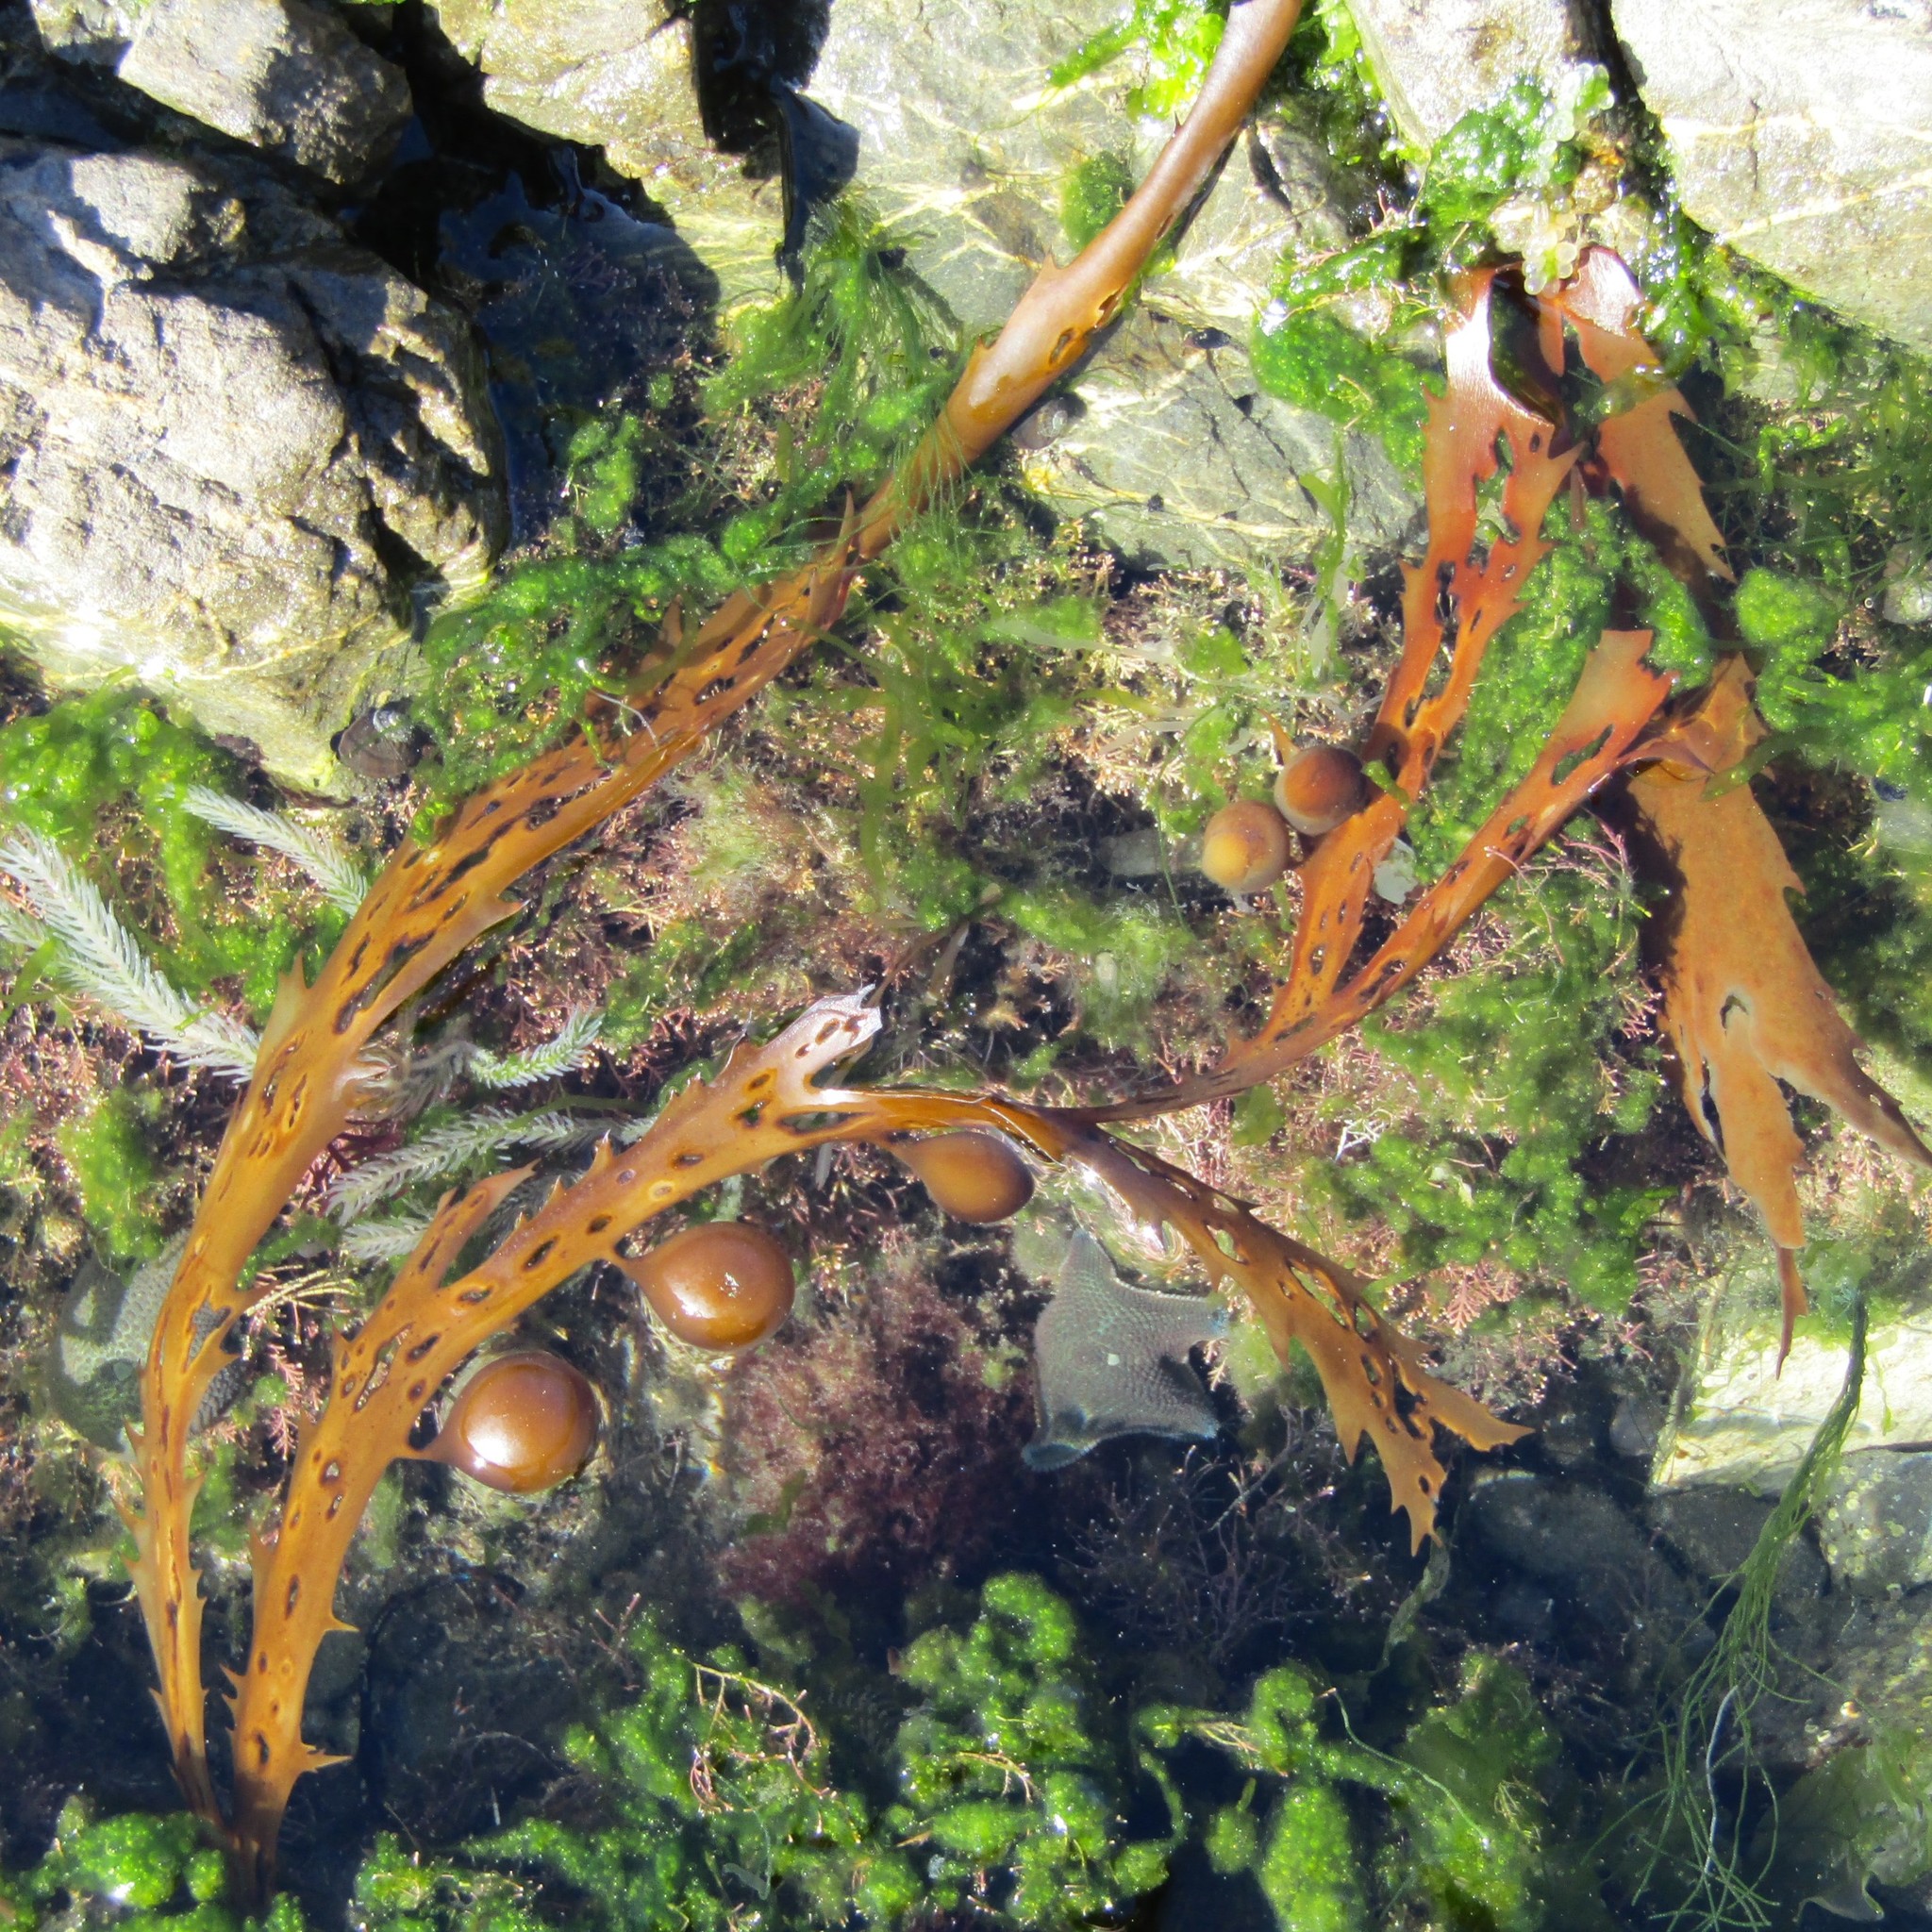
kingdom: Chromista
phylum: Ochrophyta
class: Phaeophyceae
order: Fucales
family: Seirococcaceae
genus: Marginariella
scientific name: Marginariella urvilliana
